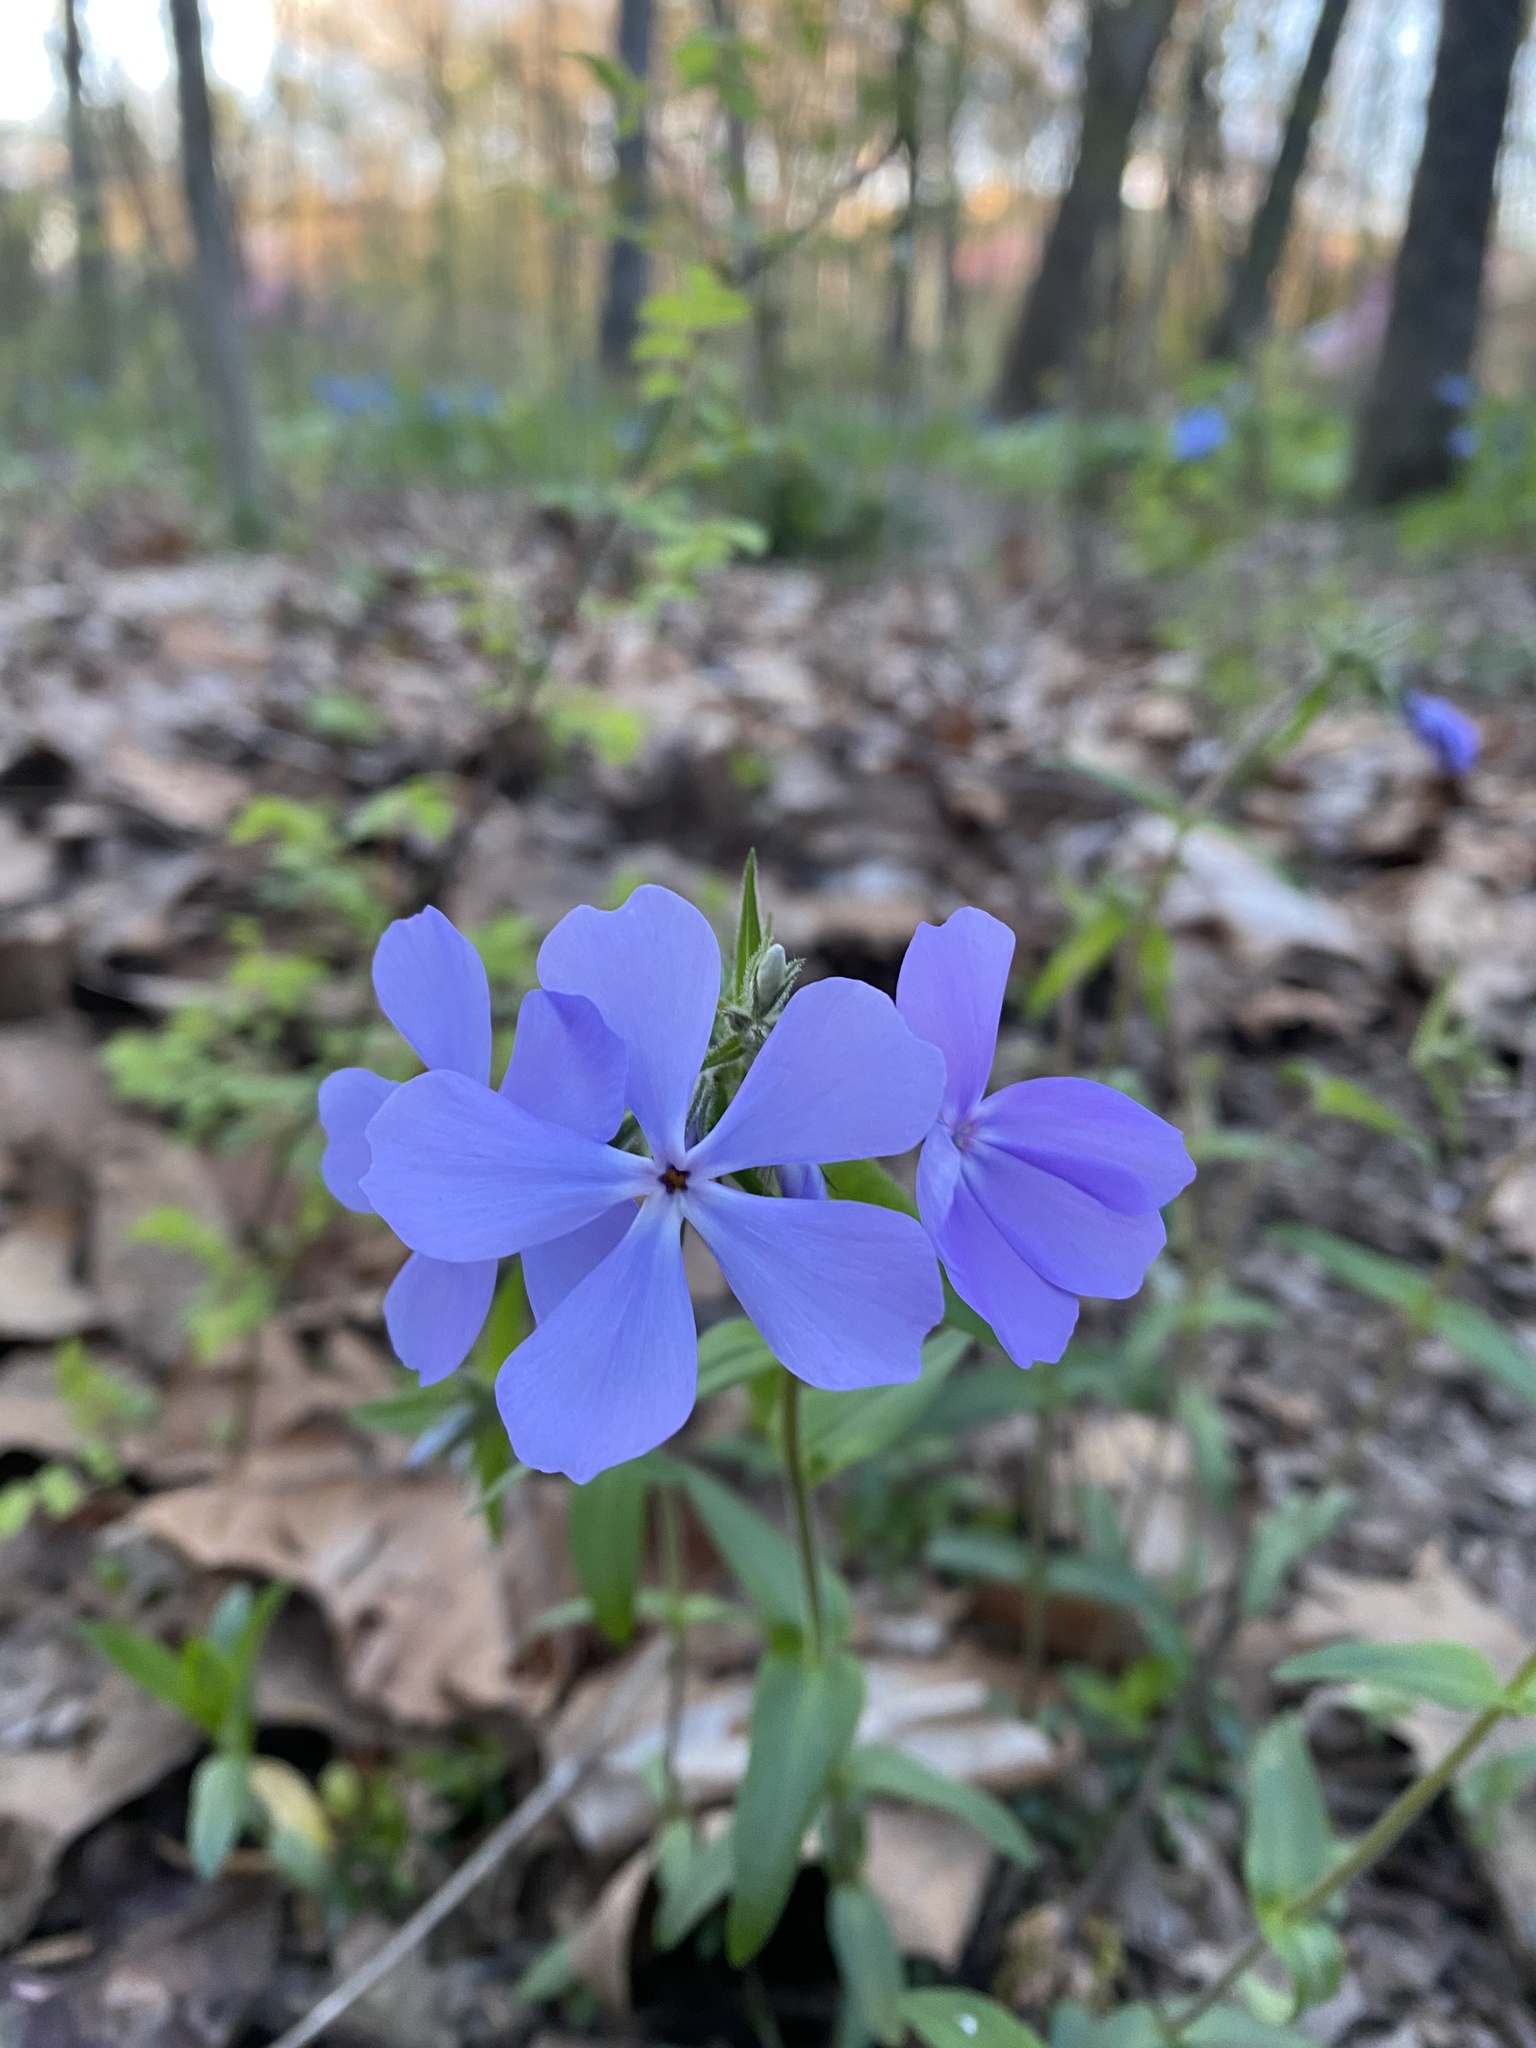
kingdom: Plantae
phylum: Tracheophyta
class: Magnoliopsida
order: Ericales
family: Polemoniaceae
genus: Phlox
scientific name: Phlox divaricata
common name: Blue phlox
